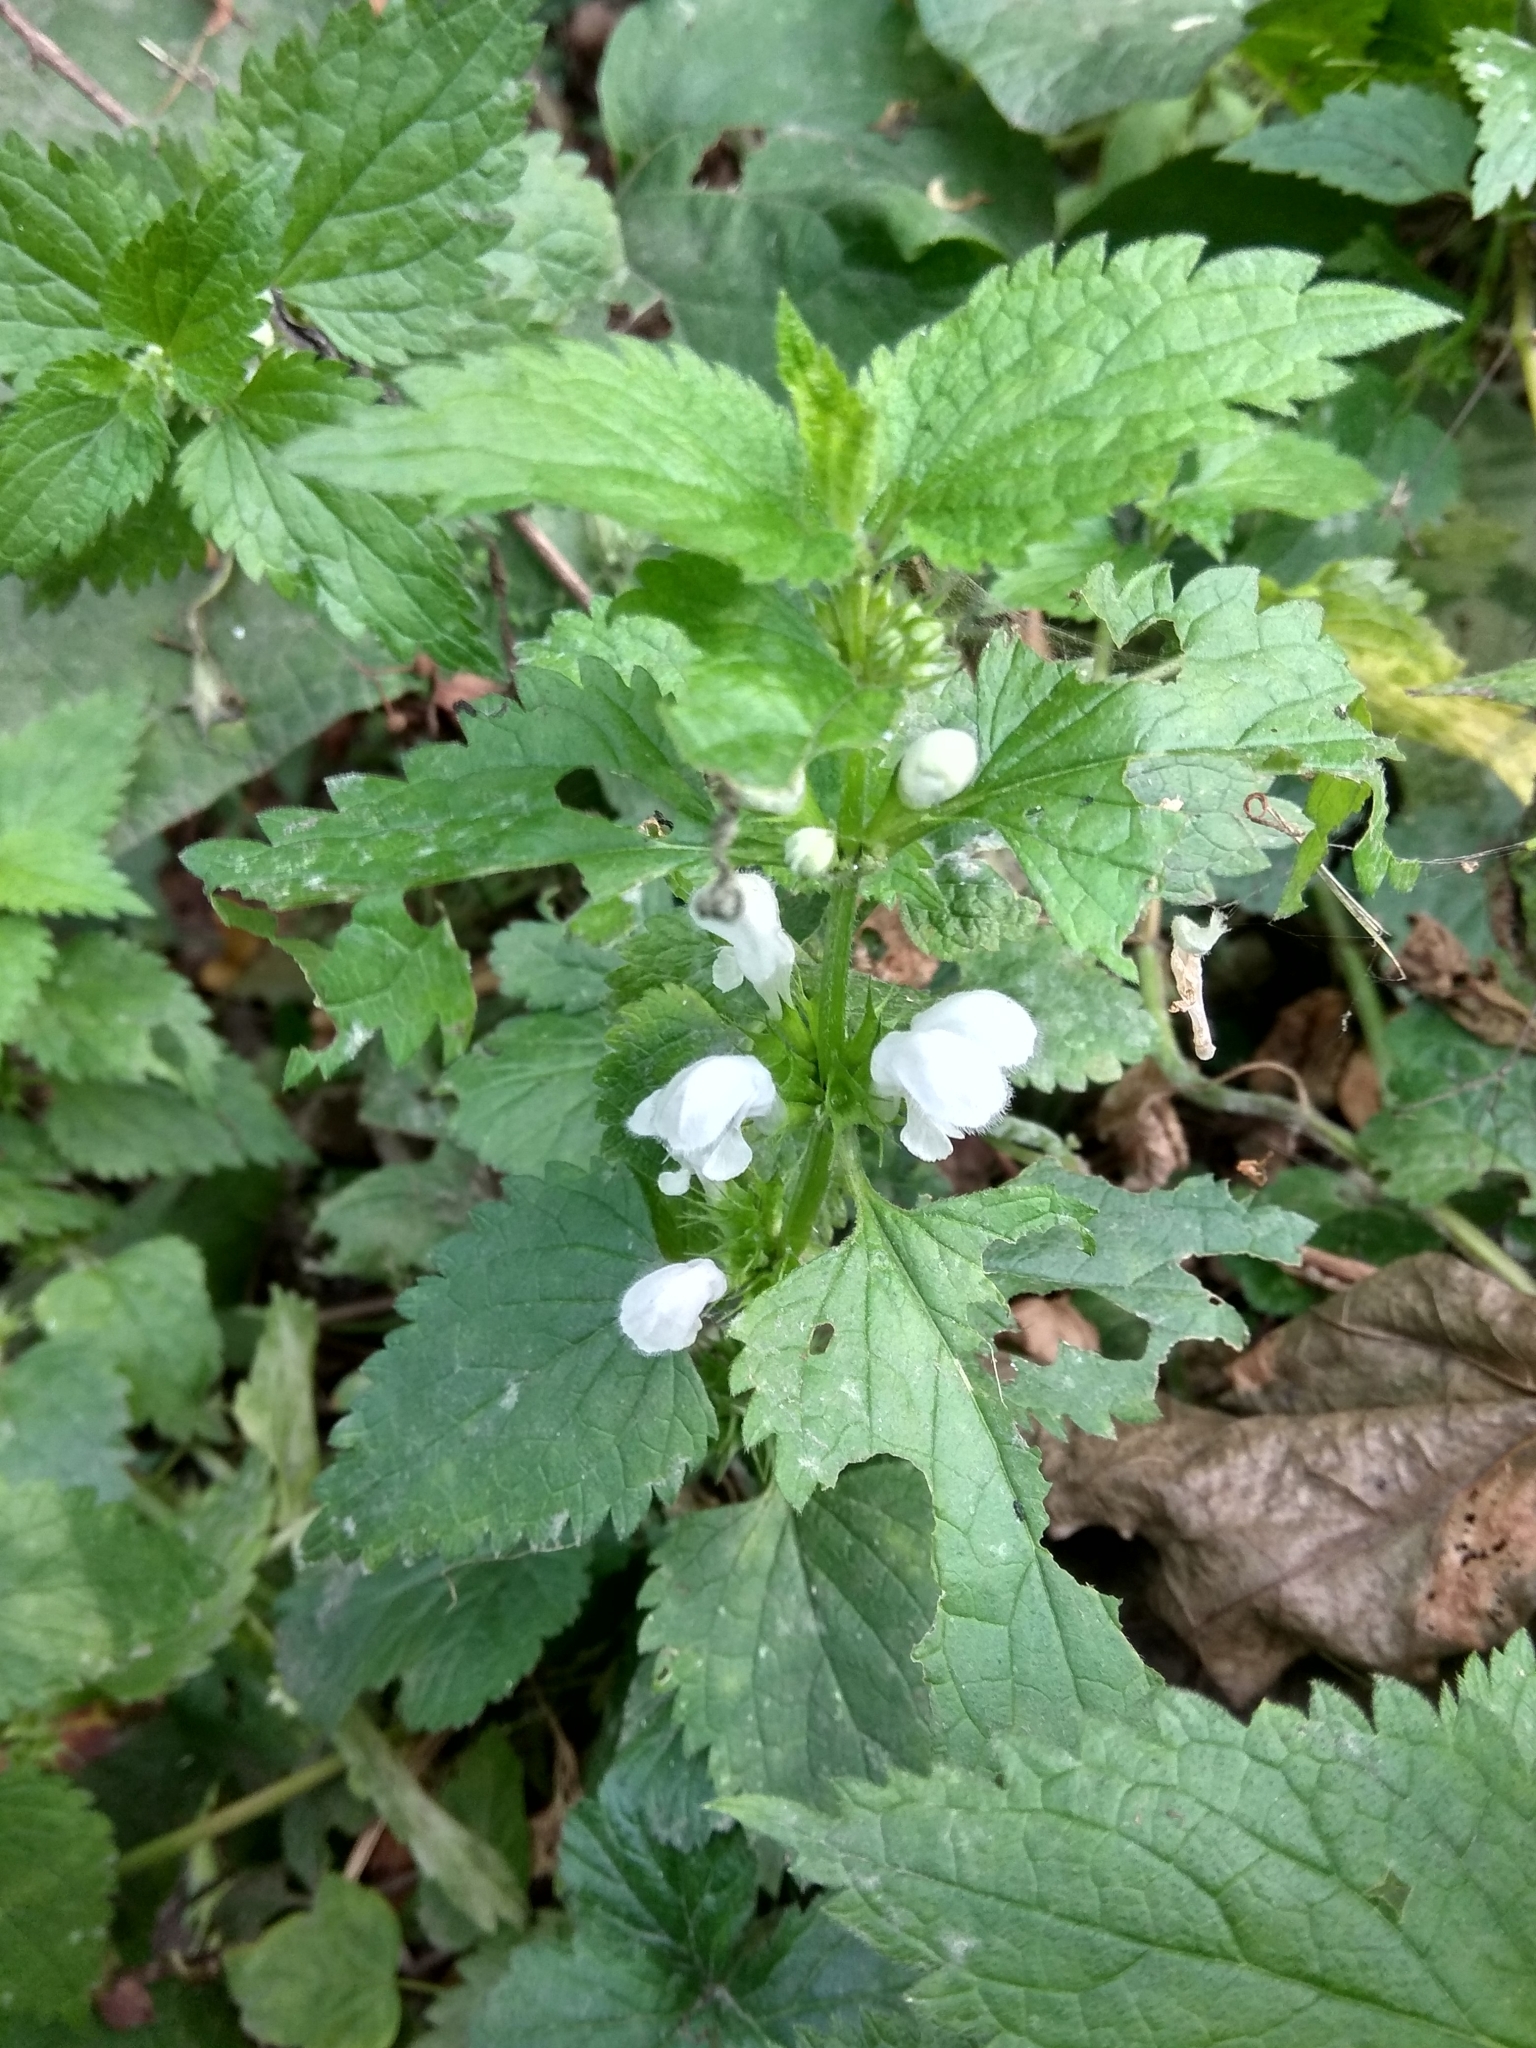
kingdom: Plantae
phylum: Tracheophyta
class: Magnoliopsida
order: Lamiales
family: Lamiaceae
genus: Lamium
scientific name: Lamium album
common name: White dead-nettle
